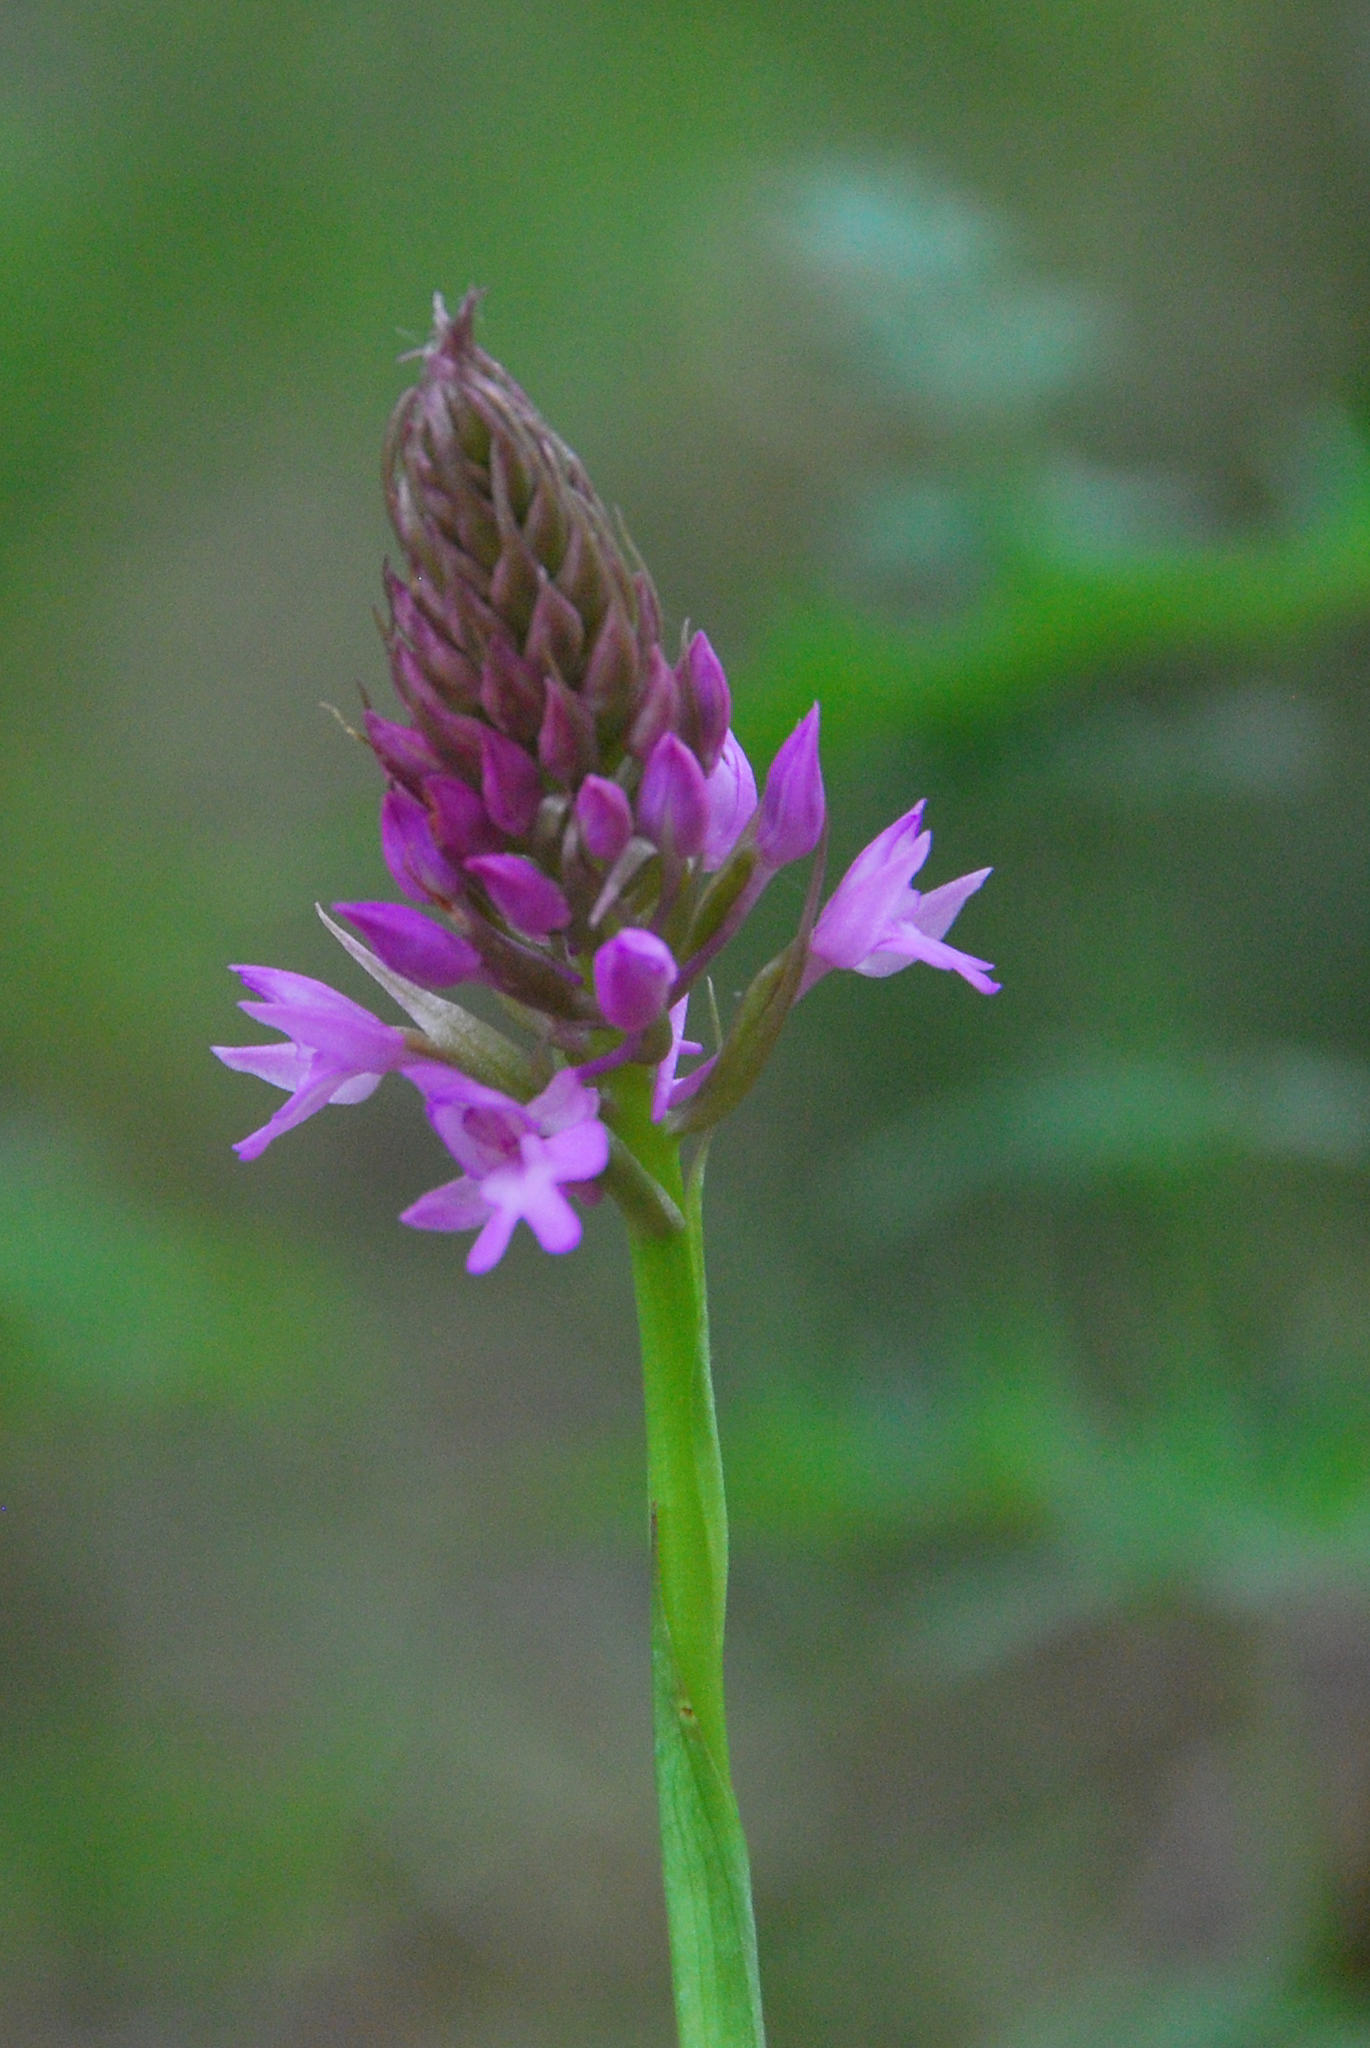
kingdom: Plantae
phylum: Tracheophyta
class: Liliopsida
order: Asparagales
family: Orchidaceae
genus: Anacamptis
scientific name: Anacamptis pyramidalis
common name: Pyramidal orchid
